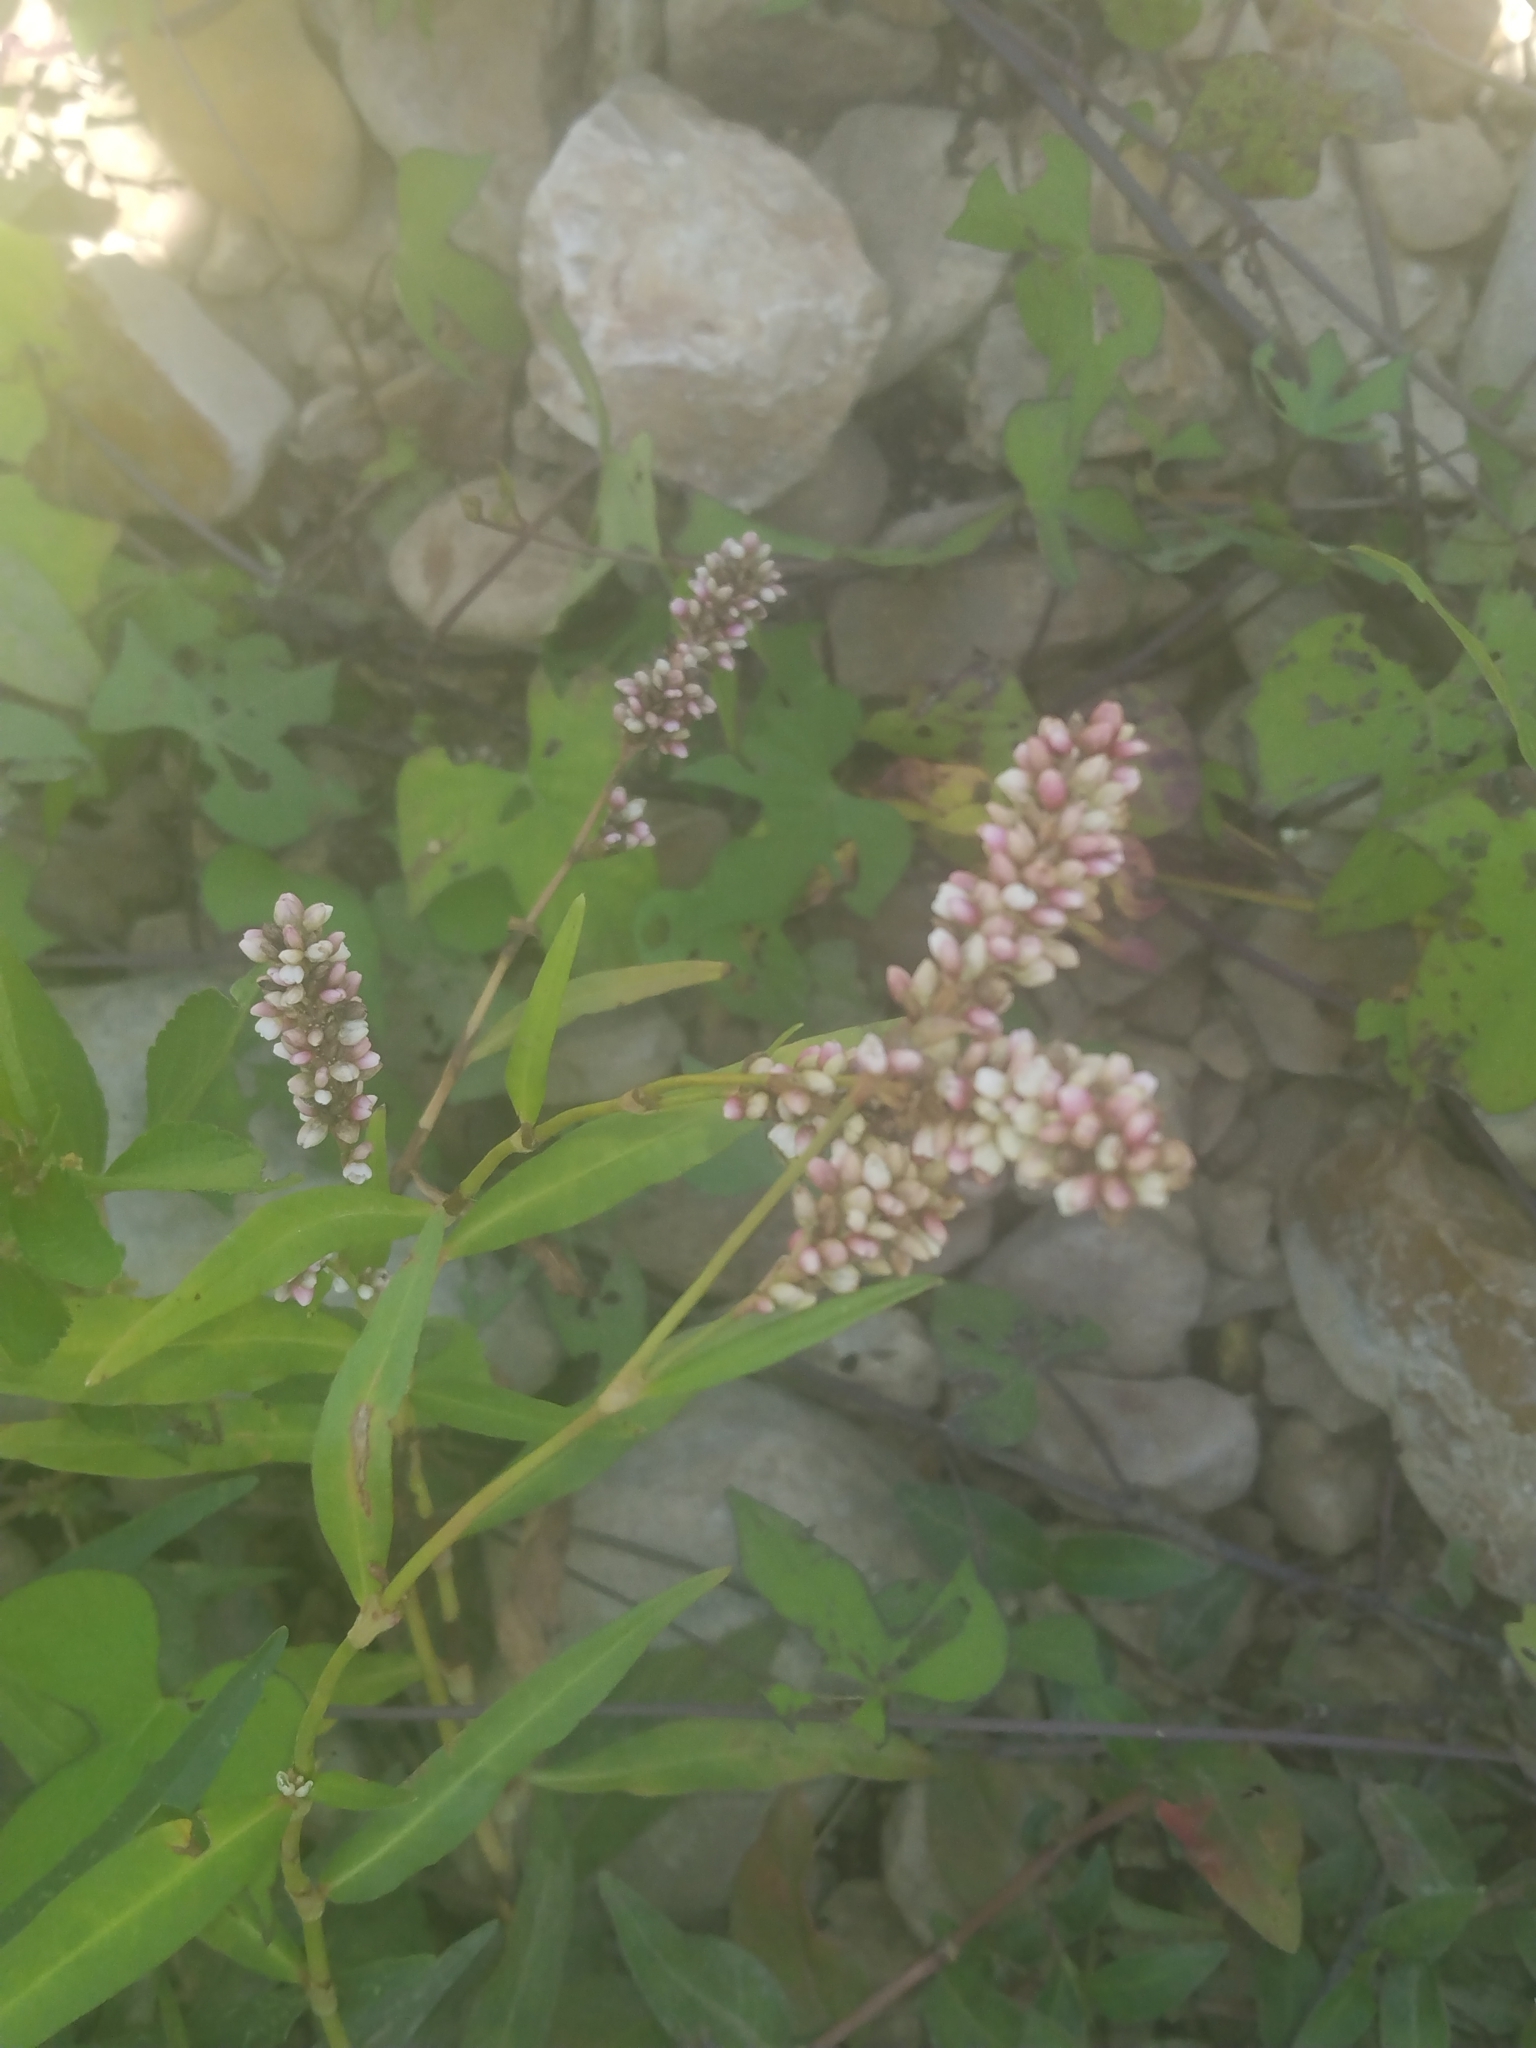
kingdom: Plantae
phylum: Tracheophyta
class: Magnoliopsida
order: Caryophyllales
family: Polygonaceae
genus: Persicaria
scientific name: Persicaria pensylvanica
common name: Pinkweed
